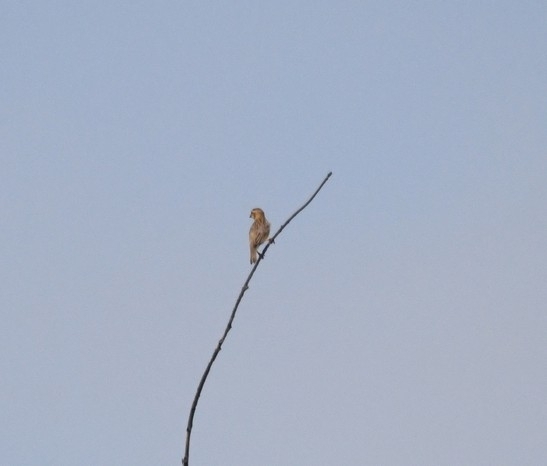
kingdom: Animalia
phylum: Chordata
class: Aves
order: Passeriformes
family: Ploceidae
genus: Ploceus
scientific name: Ploceus philippinus
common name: Baya weaver
